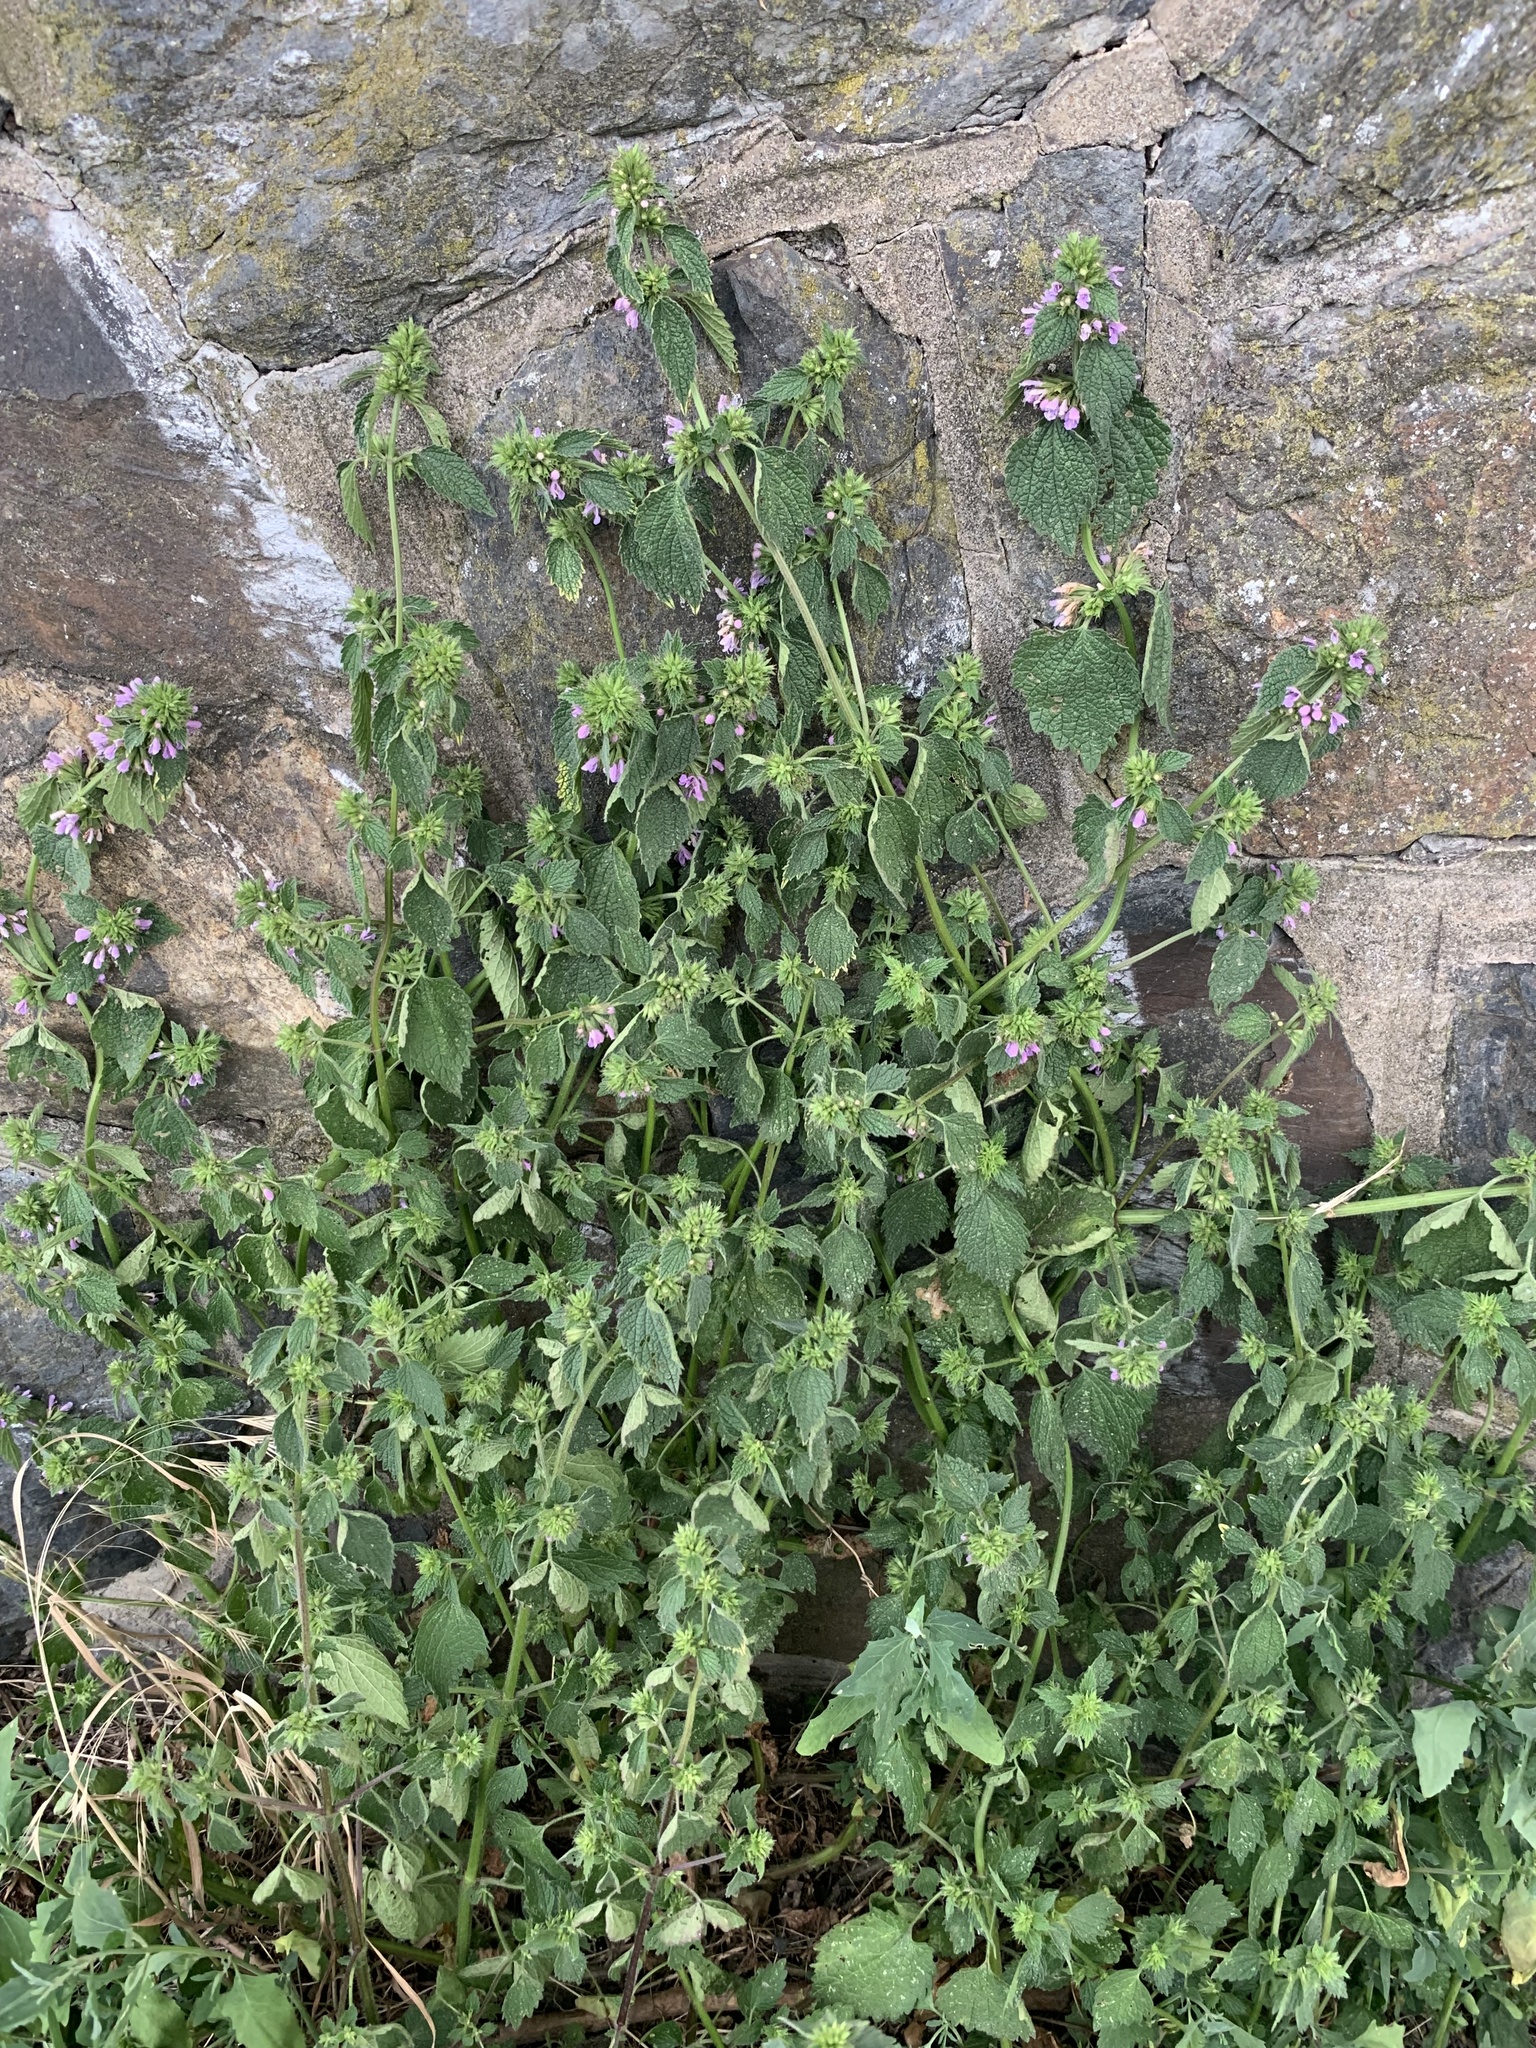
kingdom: Plantae
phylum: Tracheophyta
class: Magnoliopsida
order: Lamiales
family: Lamiaceae
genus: Ballota
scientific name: Ballota nigra
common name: Black horehound
